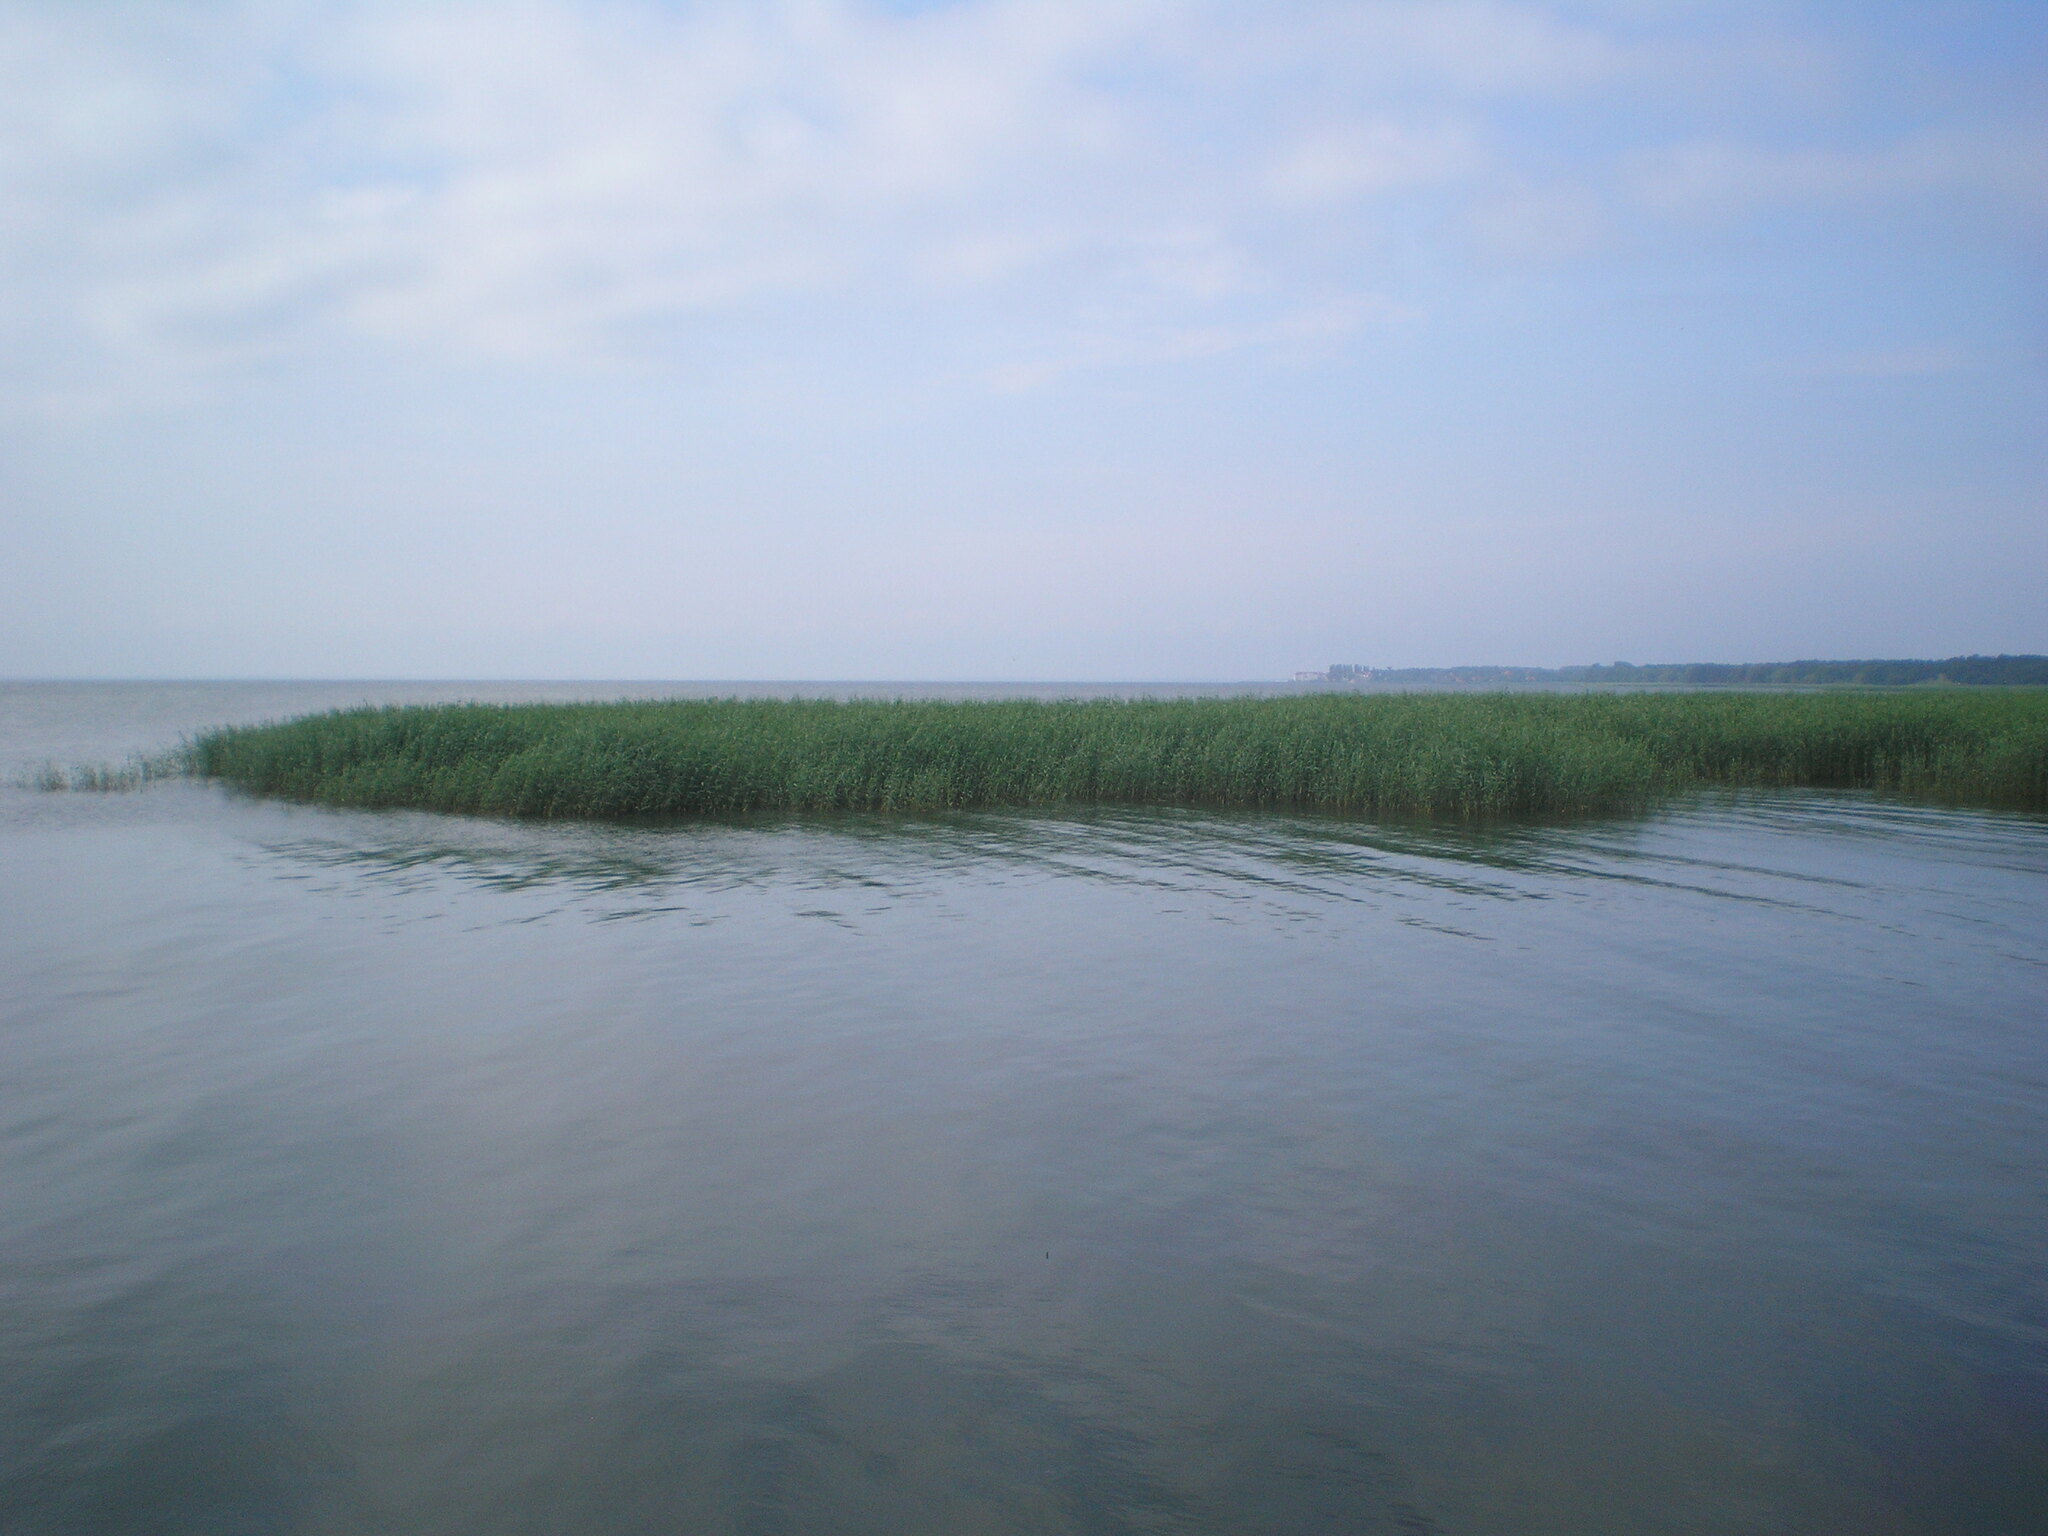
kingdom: Plantae
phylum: Tracheophyta
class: Liliopsida
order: Poales
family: Poaceae
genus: Phragmites
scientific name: Phragmites australis
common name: Common reed
